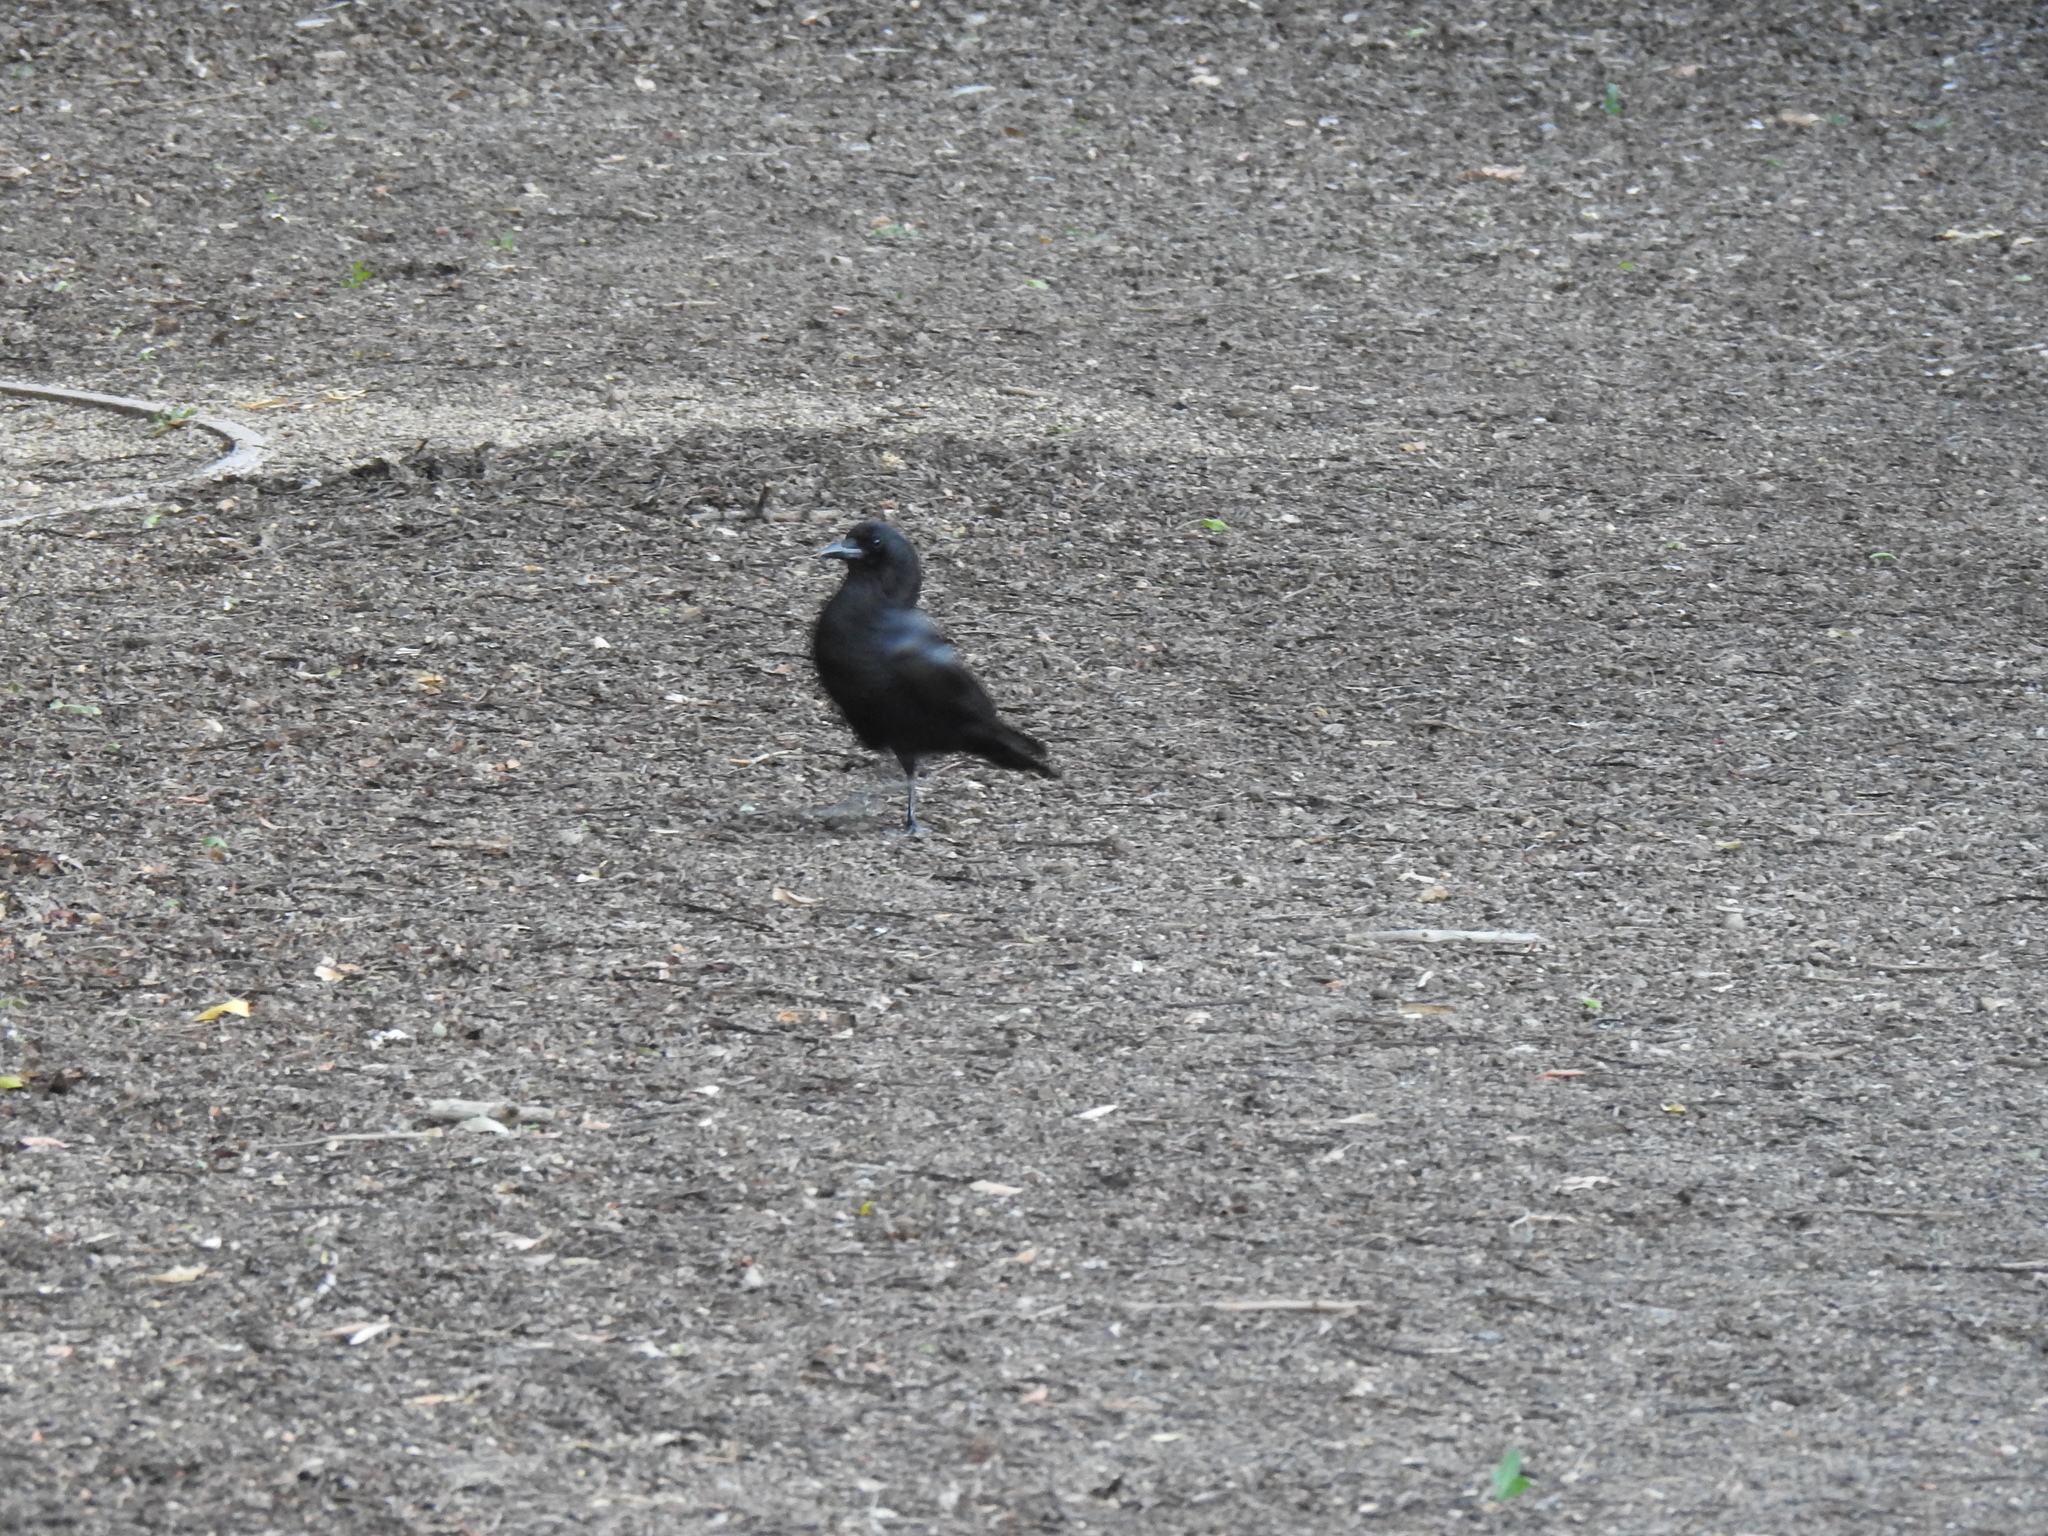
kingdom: Animalia
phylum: Chordata
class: Aves
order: Passeriformes
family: Corvidae
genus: Corvus
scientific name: Corvus brachyrhynchos
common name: American crow
